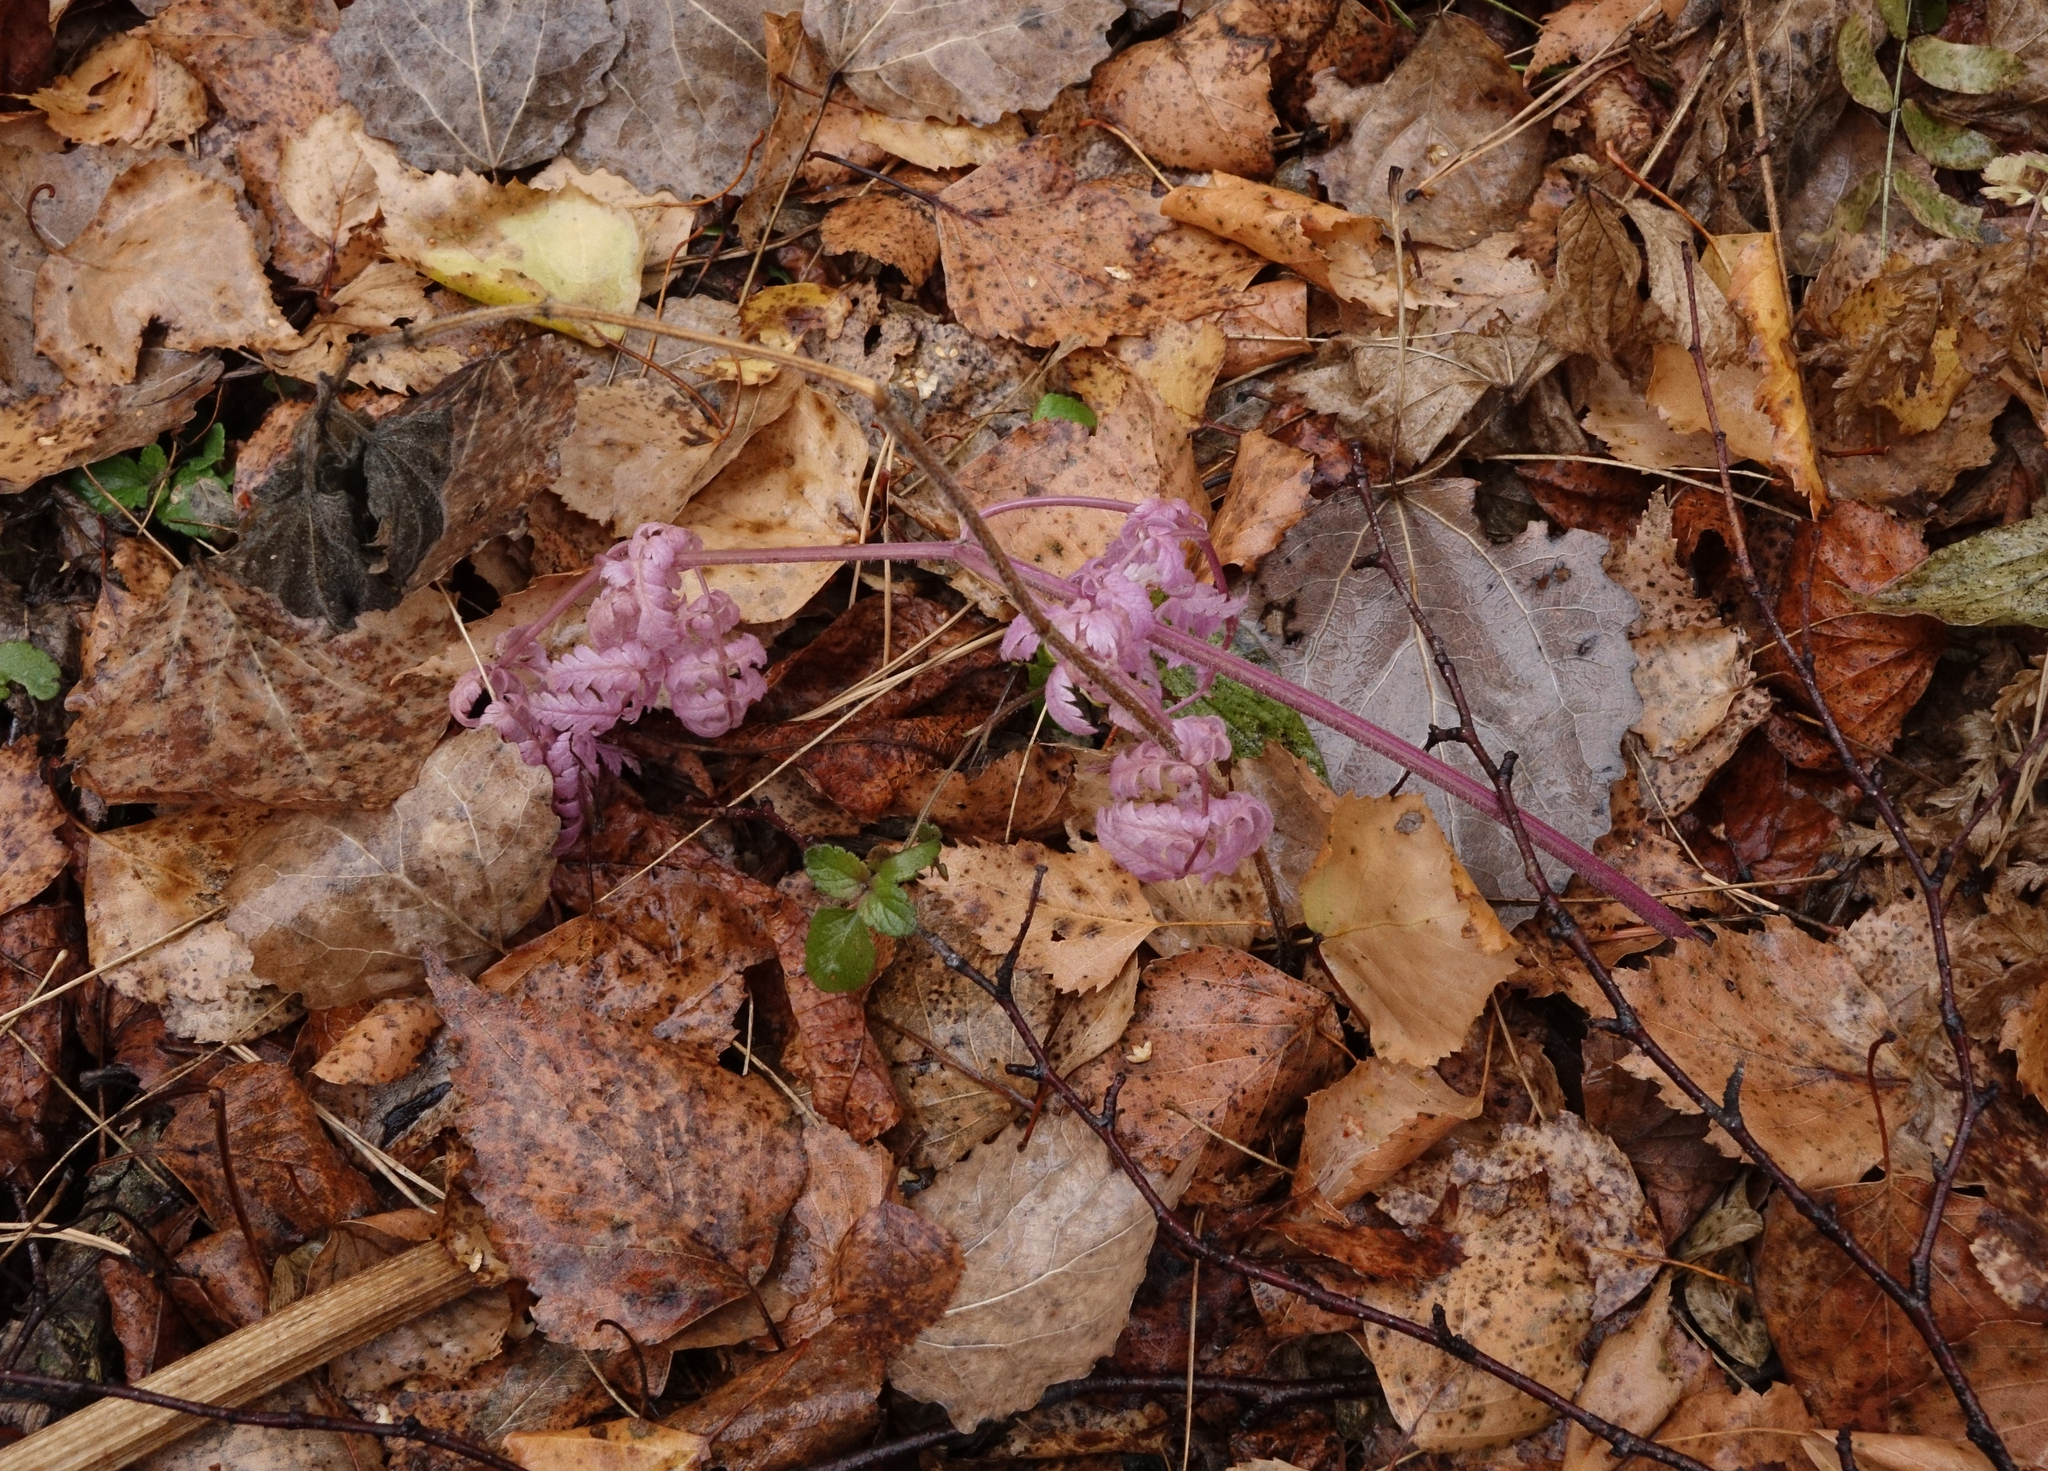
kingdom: Plantae
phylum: Tracheophyta
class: Magnoliopsida
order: Apiales
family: Apiaceae
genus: Anthriscus
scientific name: Anthriscus sylvestris
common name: Cow parsley
